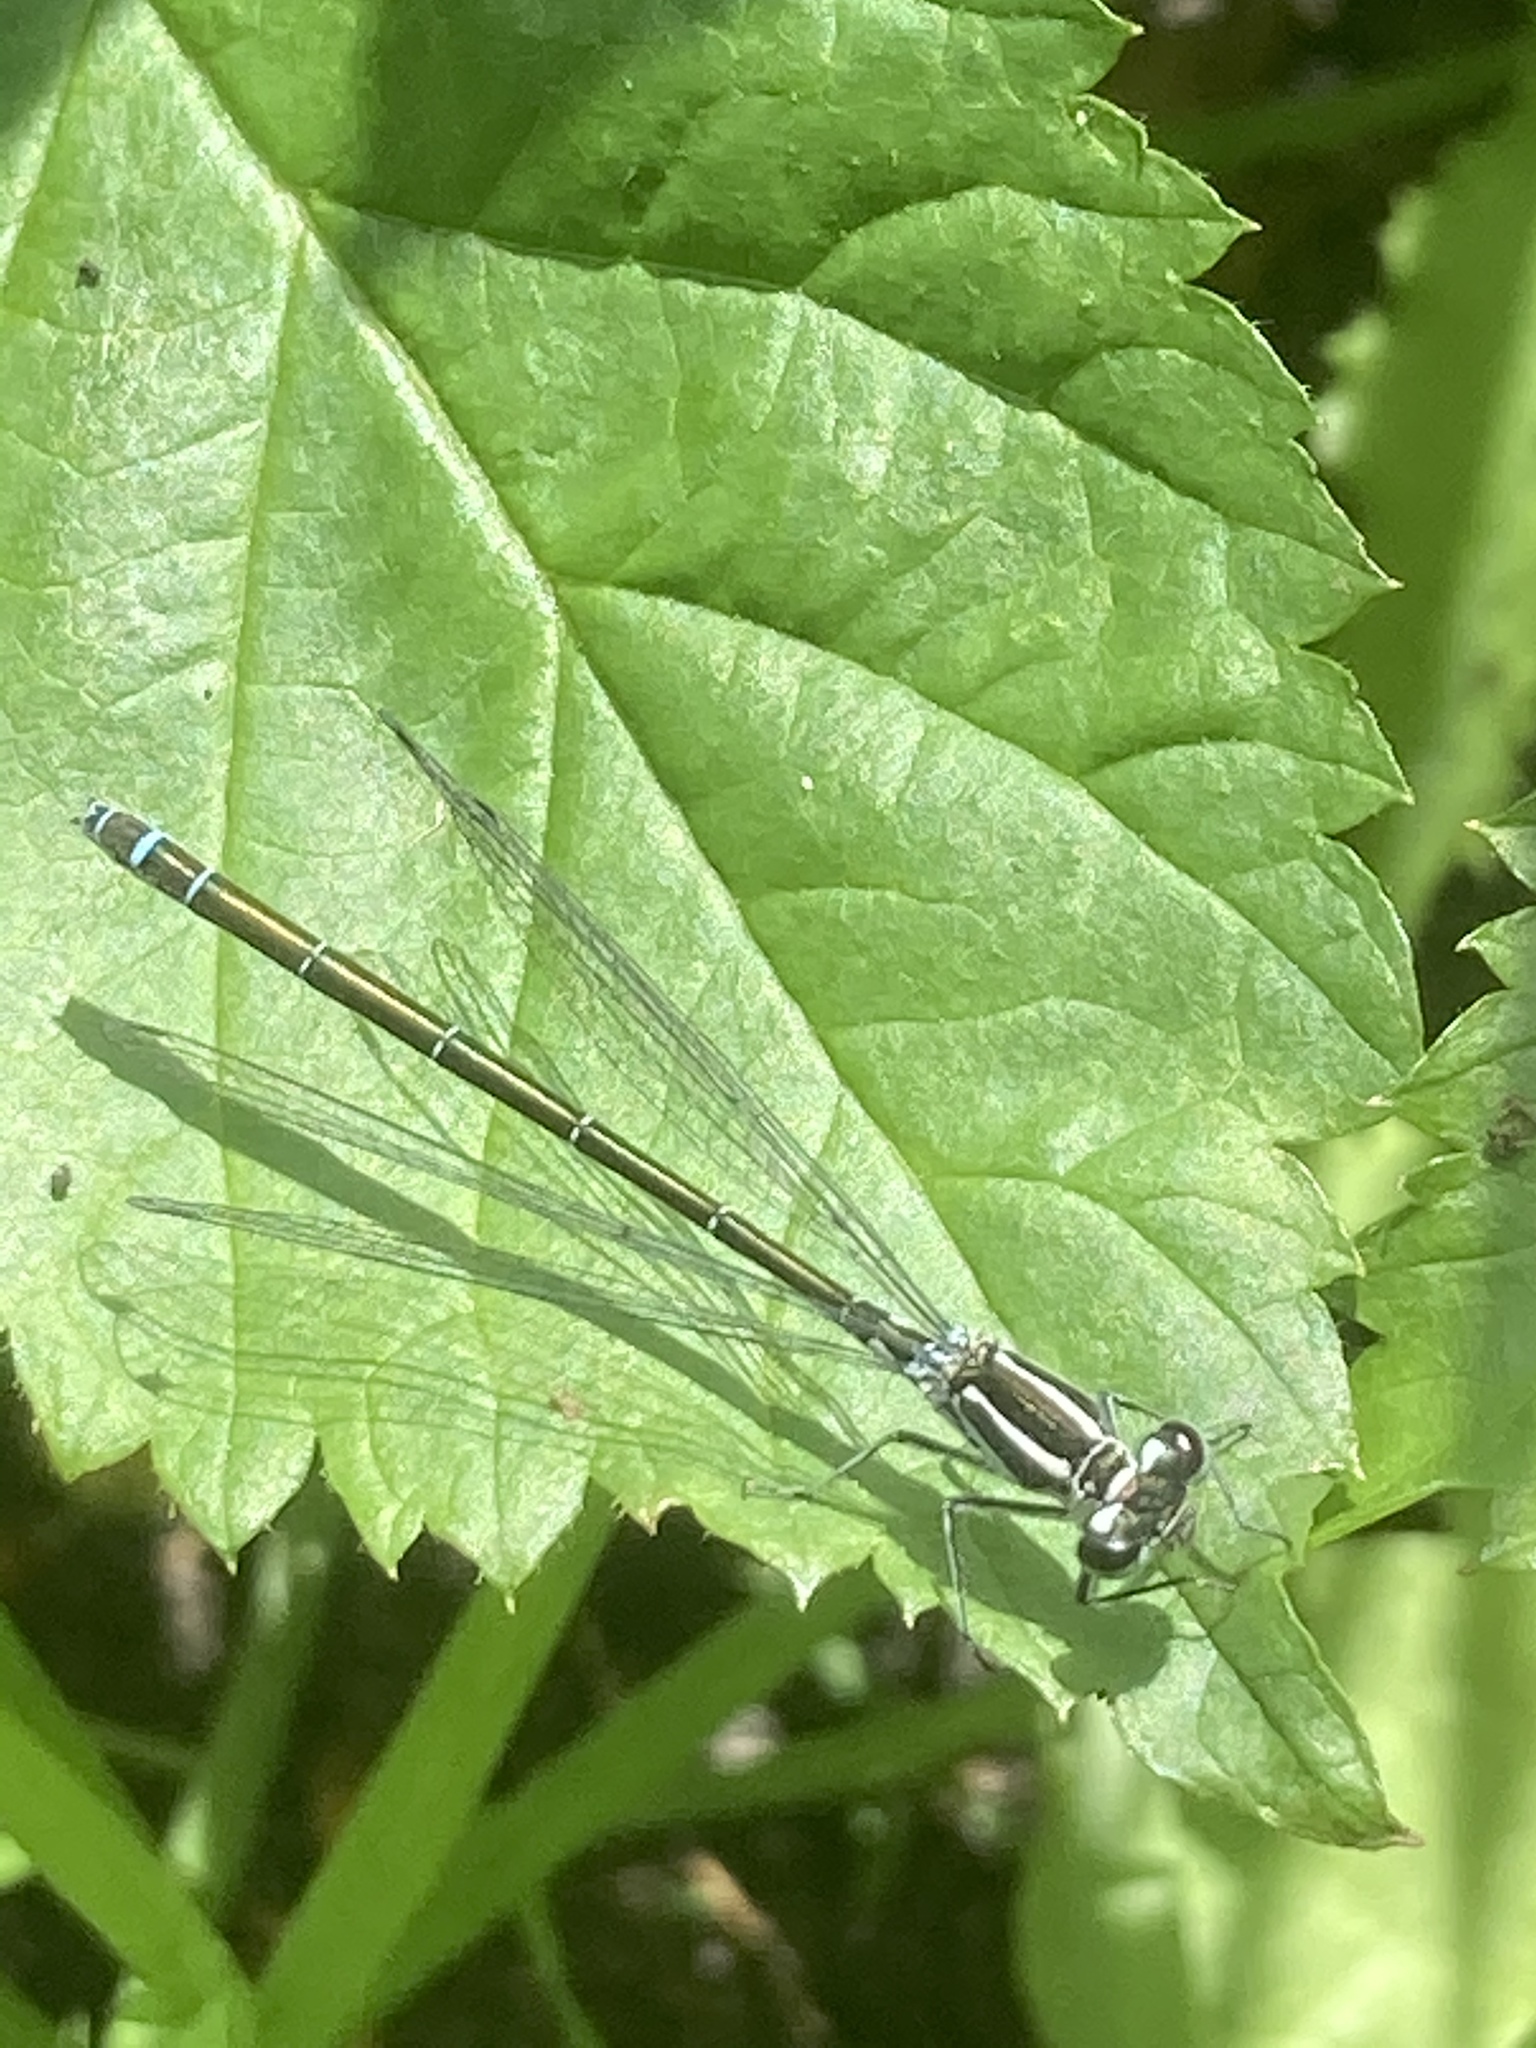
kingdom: Animalia
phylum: Arthropoda
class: Insecta
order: Odonata
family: Coenagrionidae
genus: Coenagrion
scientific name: Coenagrion puella
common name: Azure damselfly
